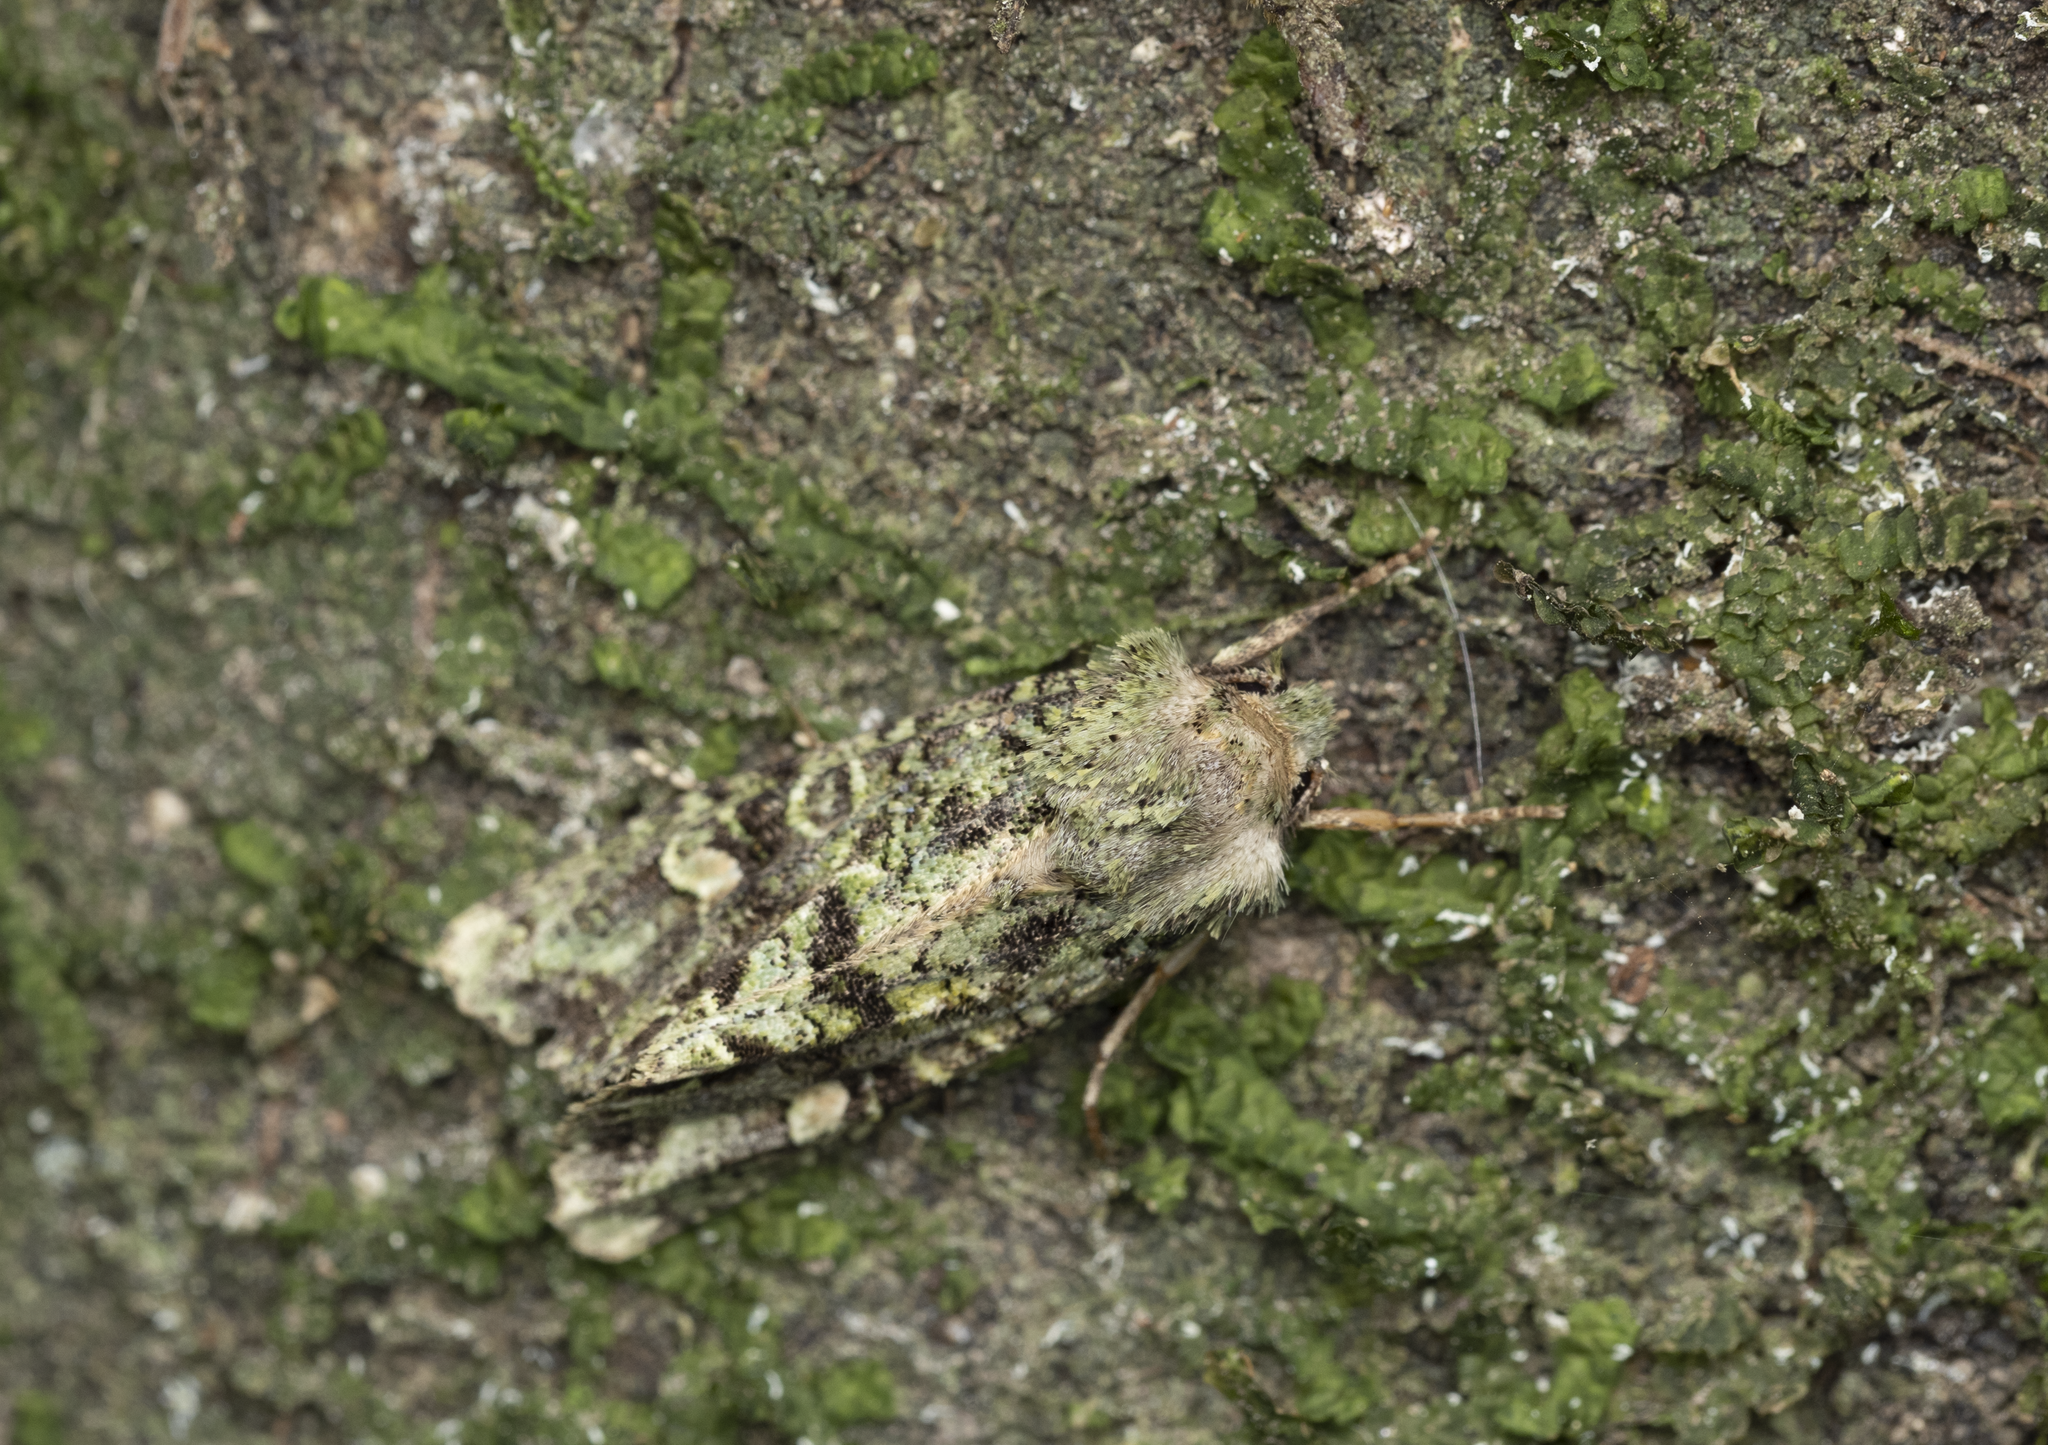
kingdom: Animalia
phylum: Arthropoda
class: Insecta
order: Lepidoptera
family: Noctuidae
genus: Ichneutica
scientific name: Ichneutica
